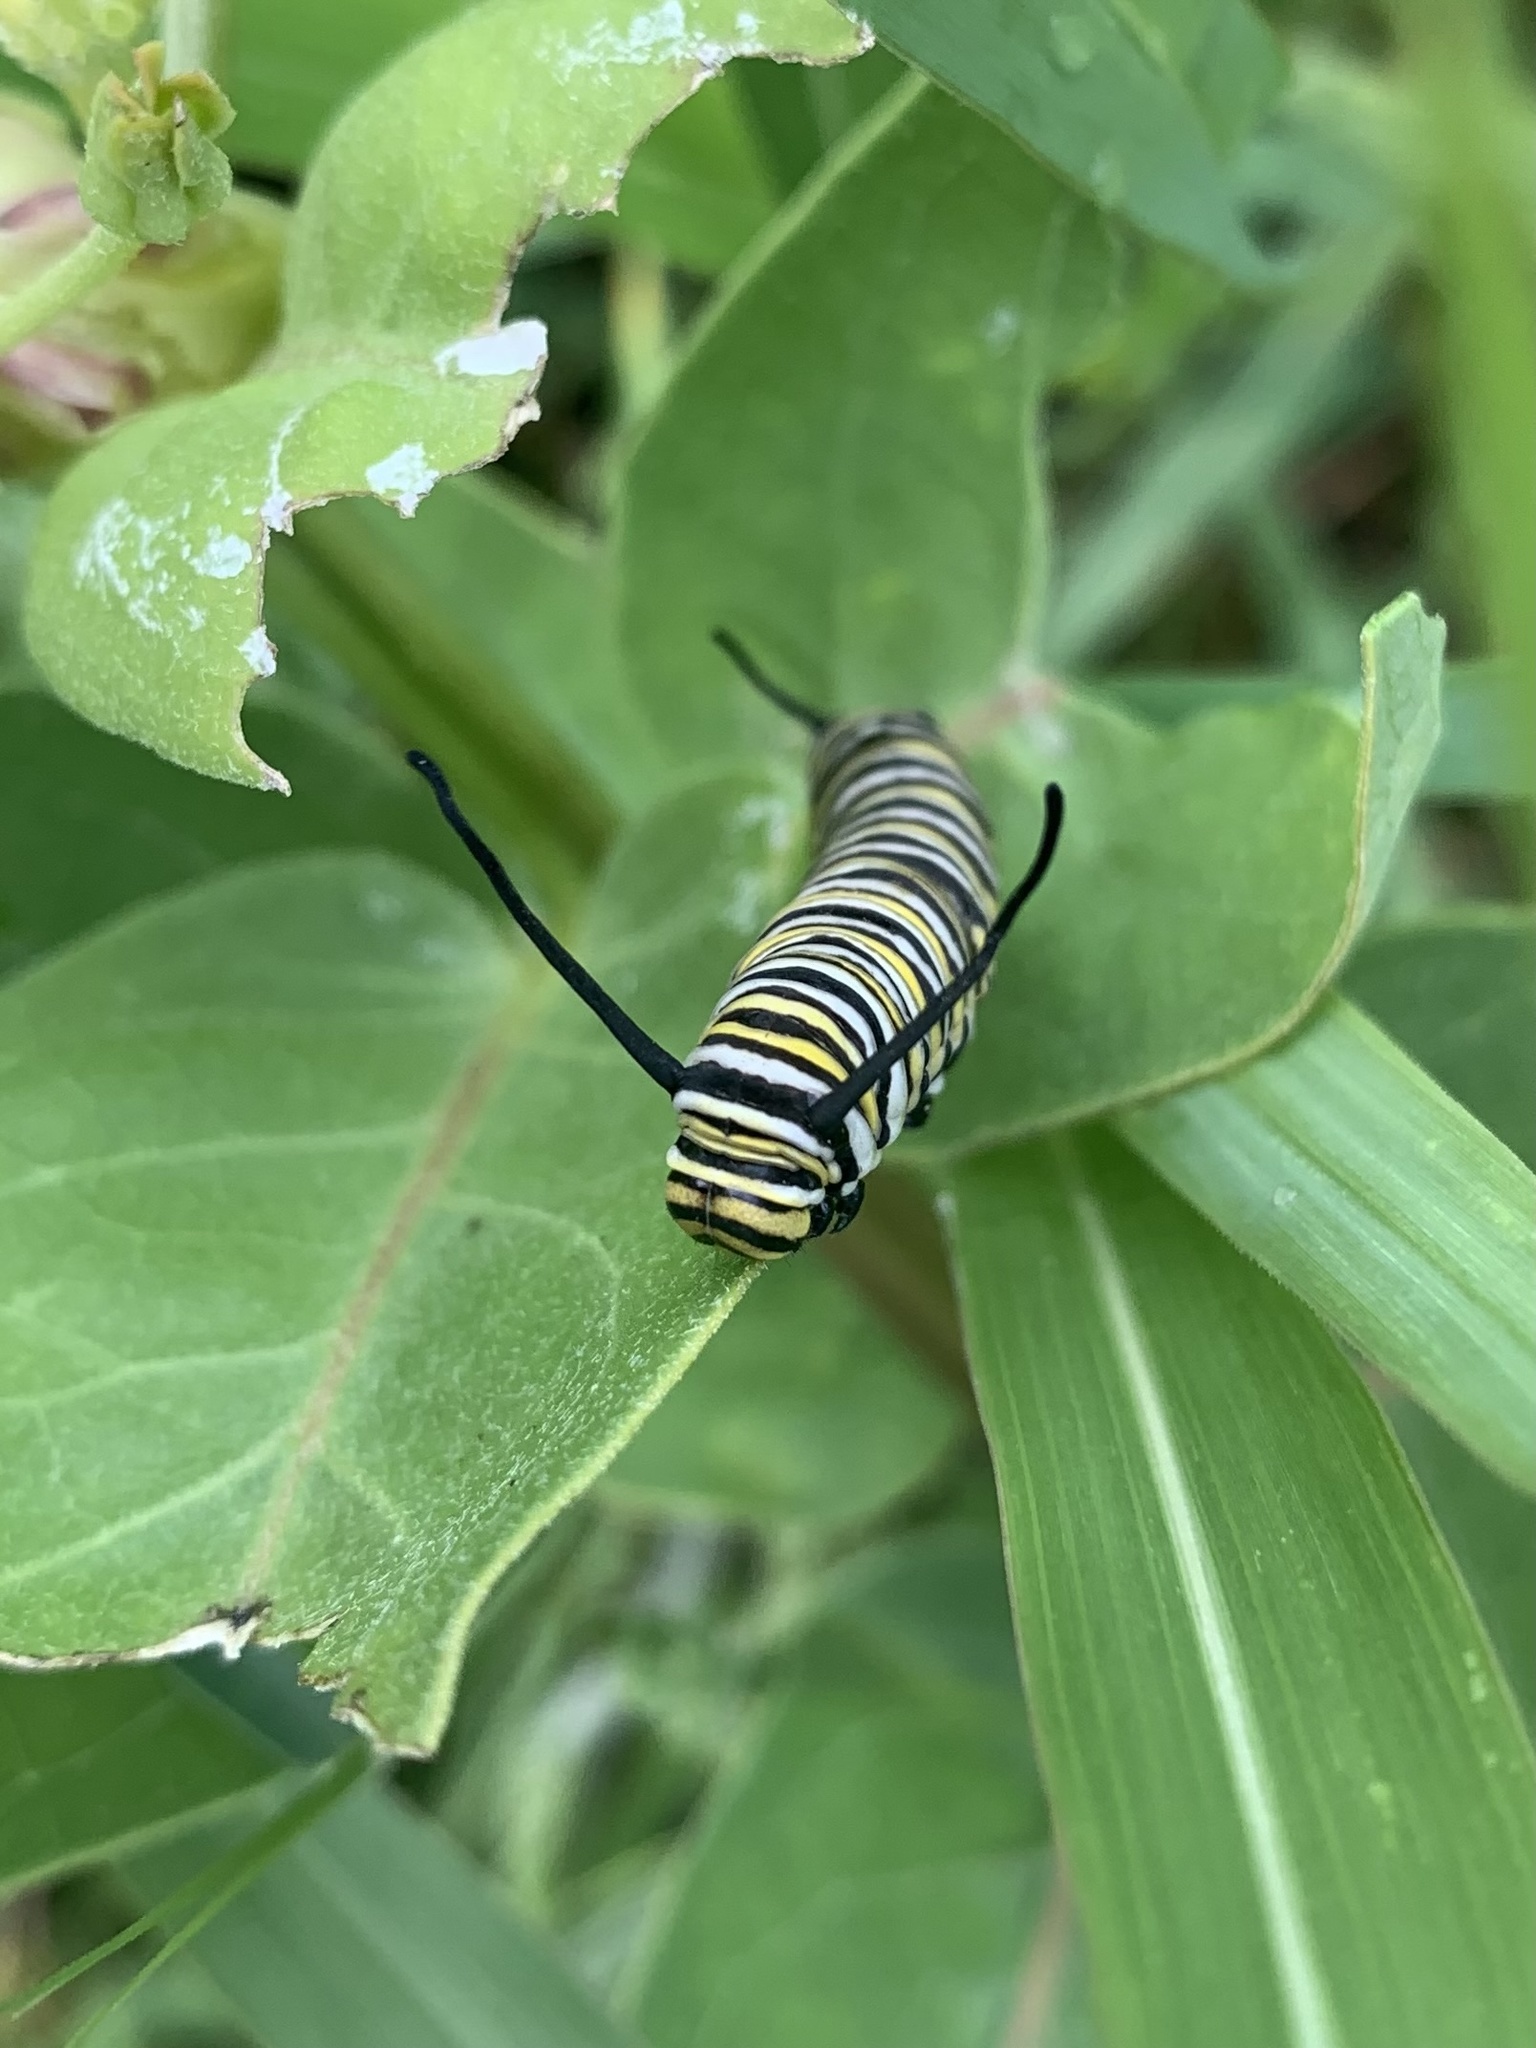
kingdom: Animalia
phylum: Arthropoda
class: Insecta
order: Lepidoptera
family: Nymphalidae
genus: Danaus
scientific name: Danaus plexippus
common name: Monarch
